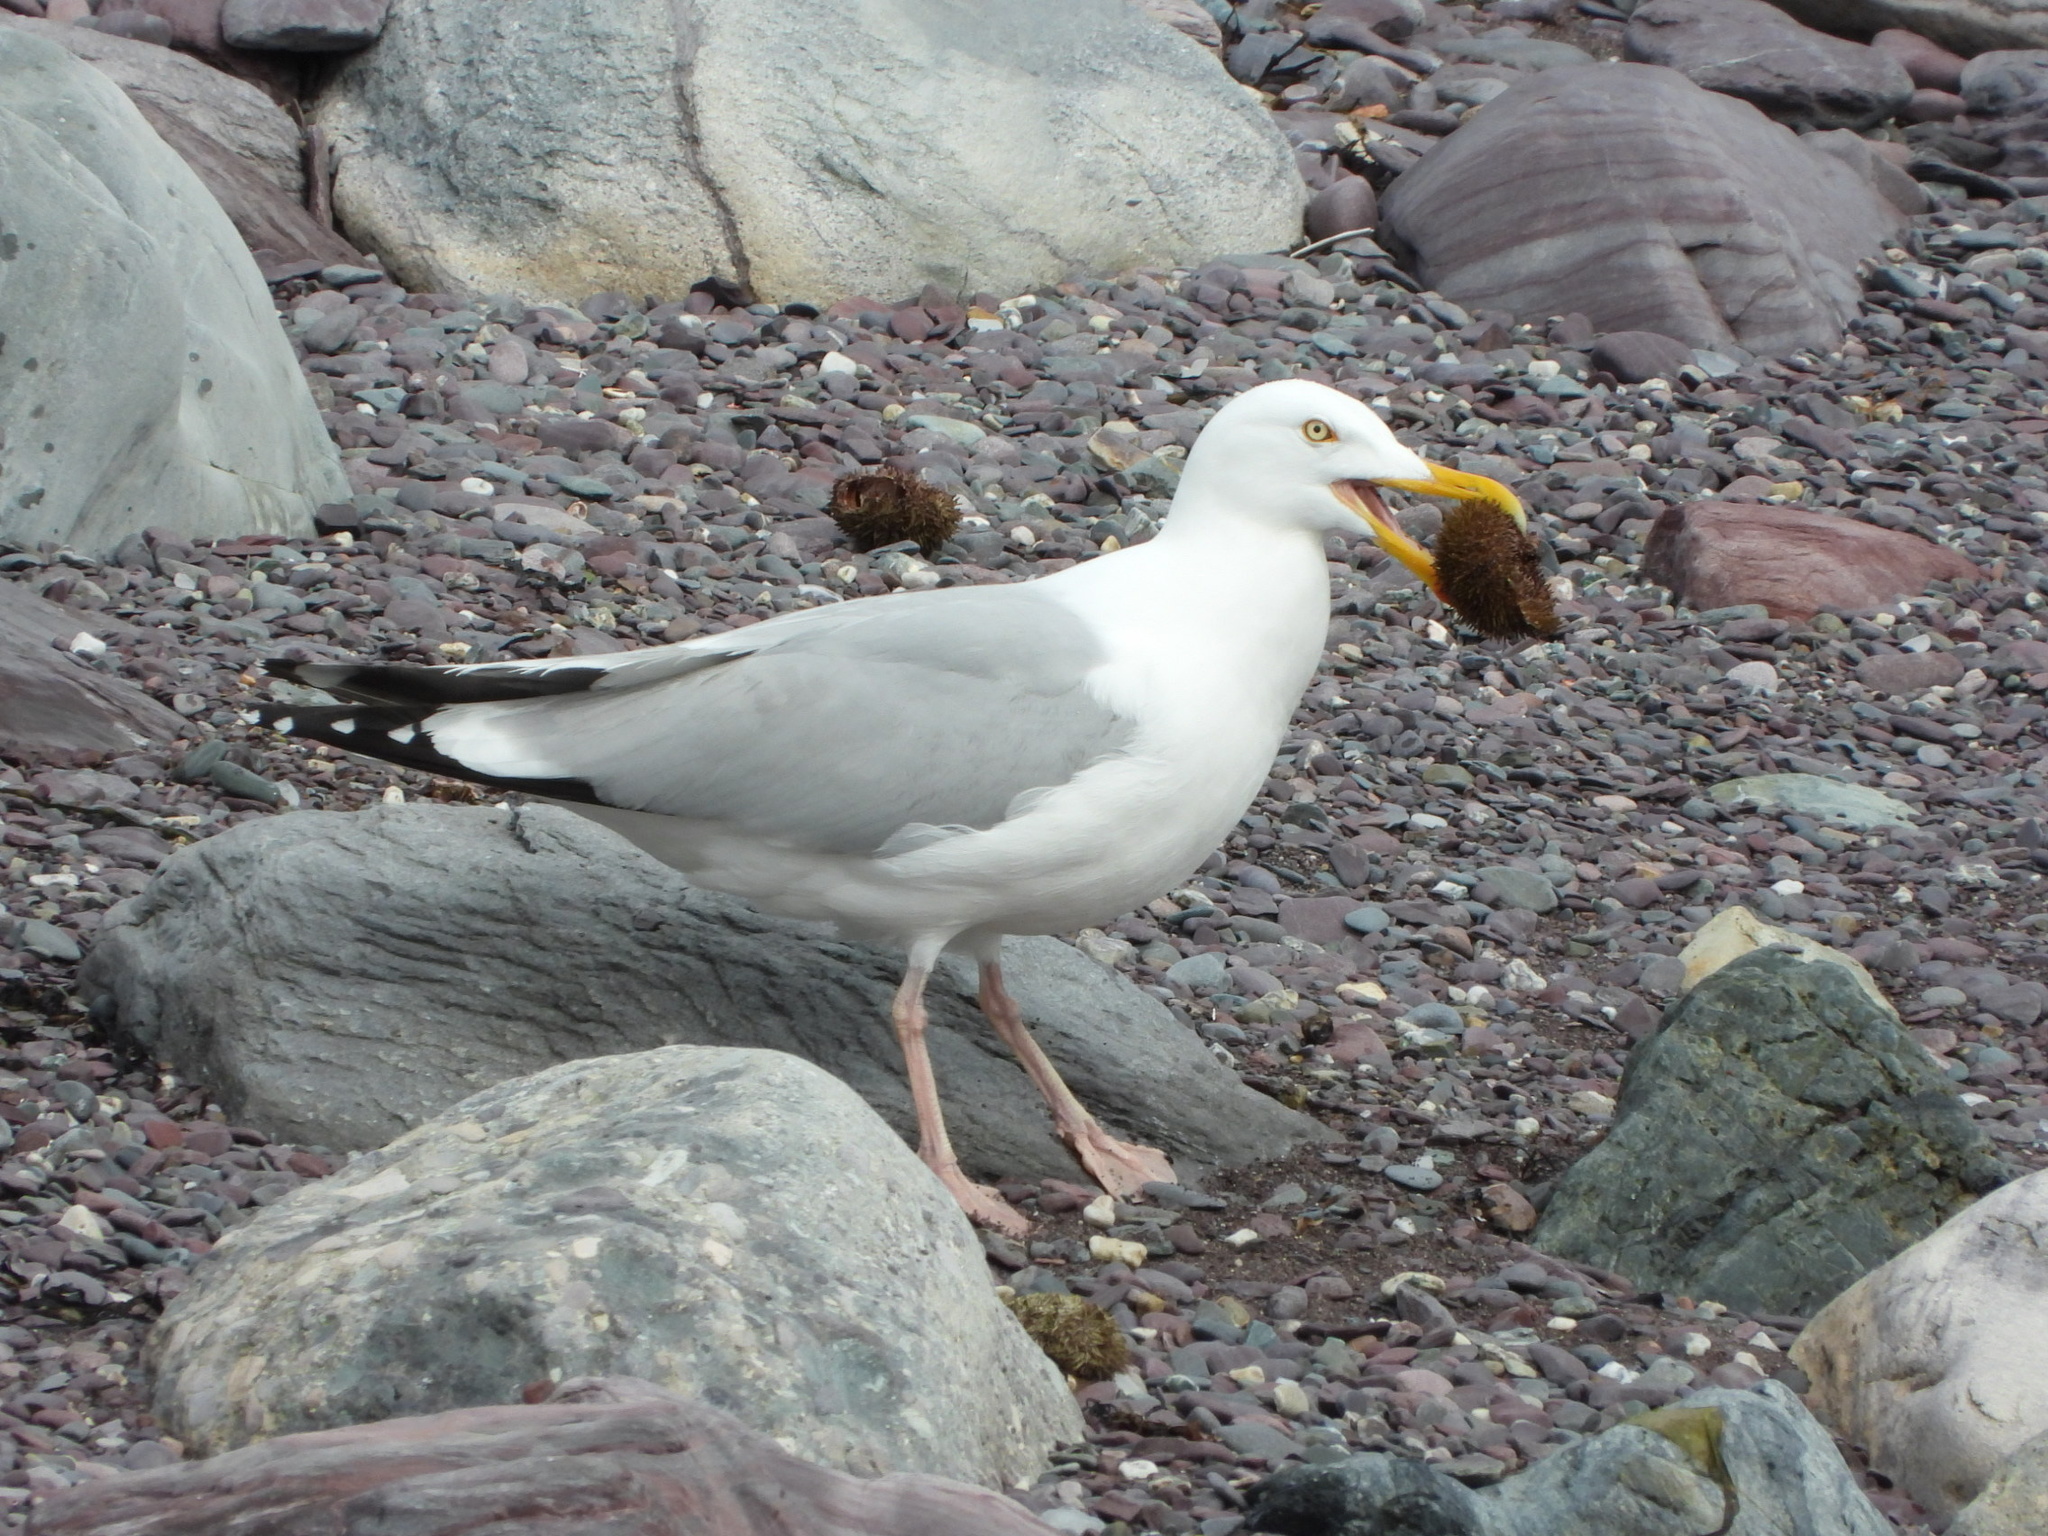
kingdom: Animalia
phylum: Chordata
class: Aves
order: Charadriiformes
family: Laridae
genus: Larus
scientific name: Larus argentatus
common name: Herring gull
